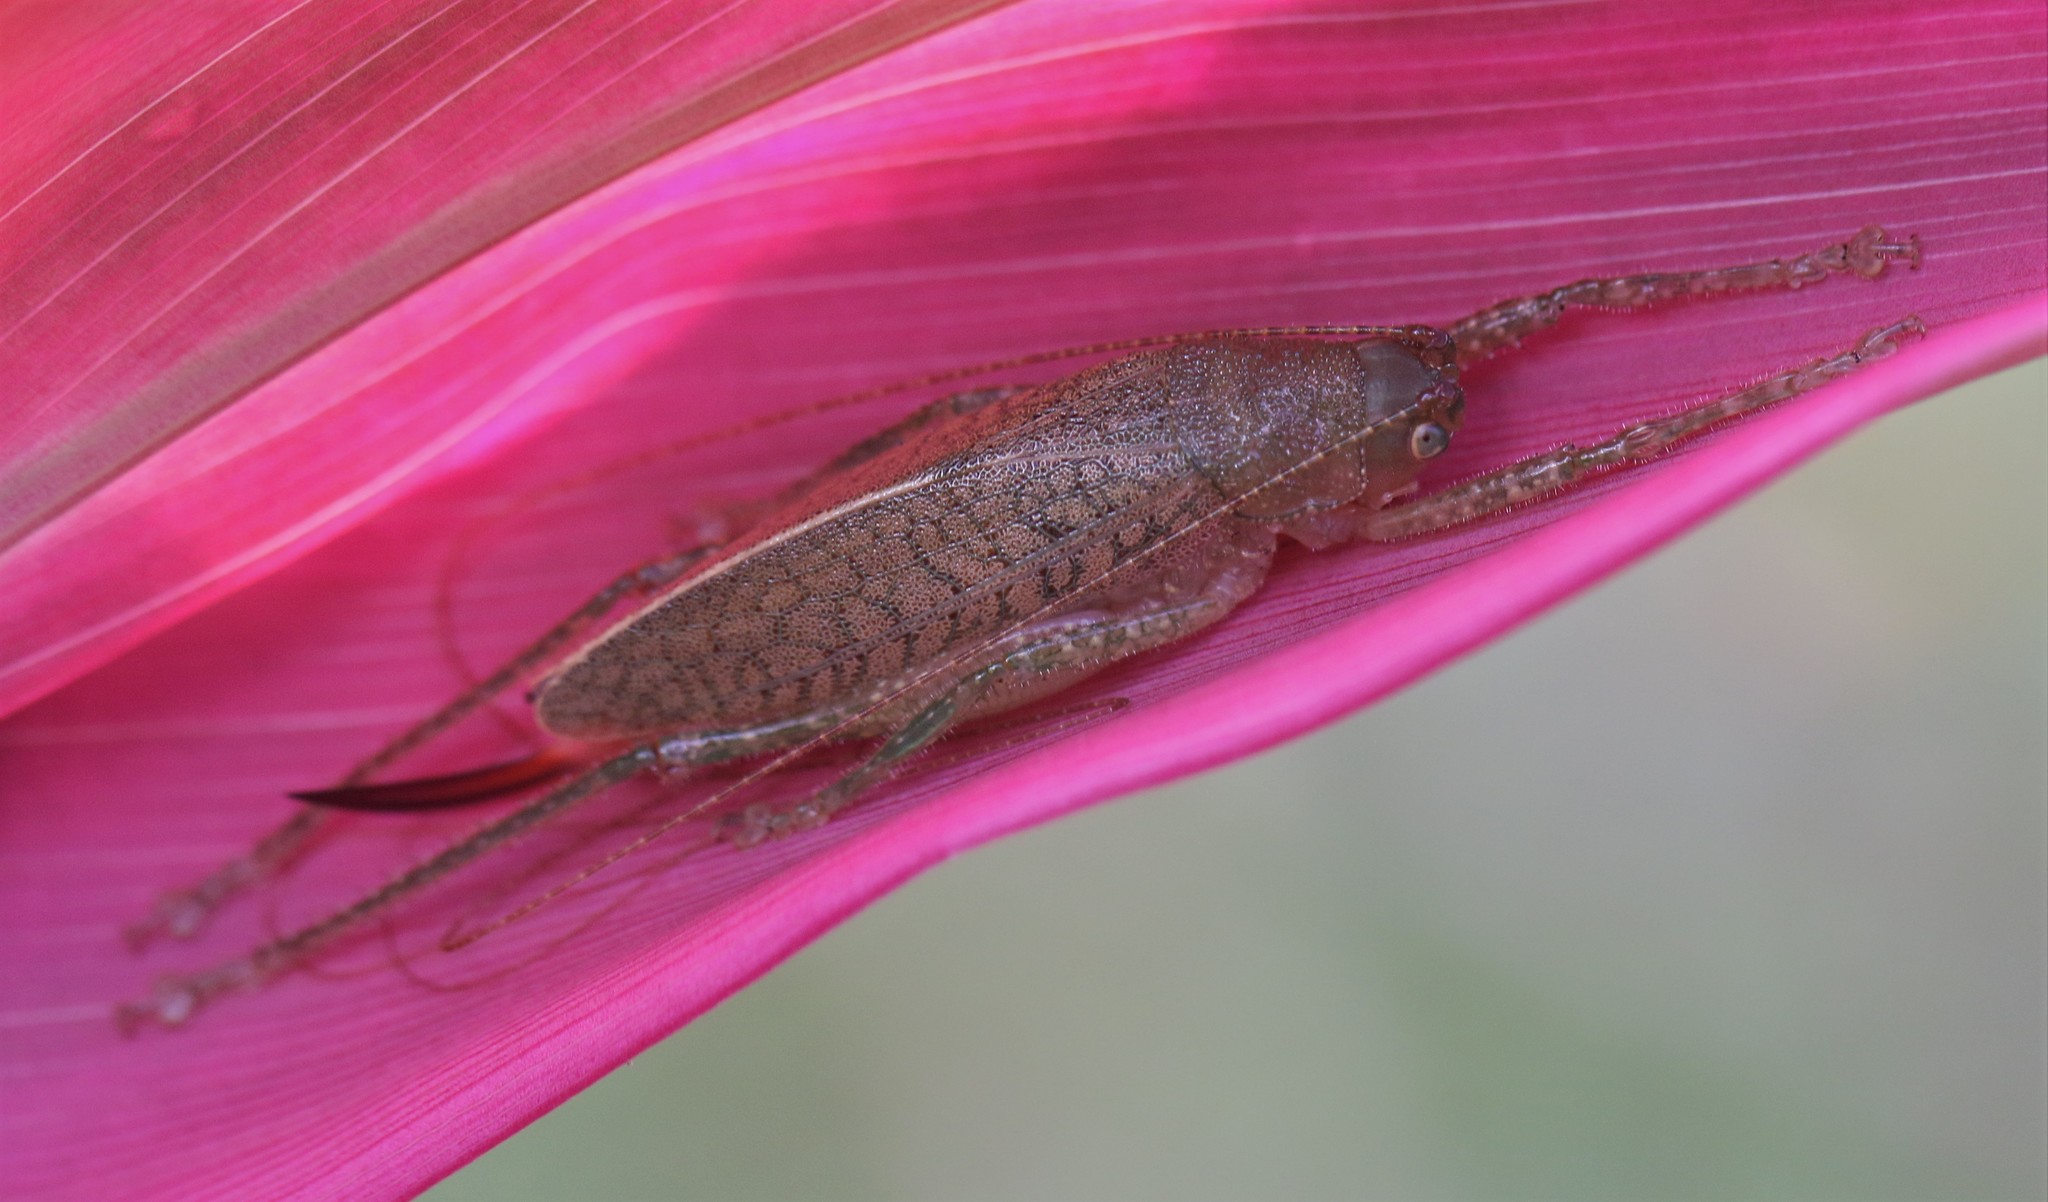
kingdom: Animalia
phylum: Arthropoda
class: Insecta
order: Orthoptera
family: Tettigoniidae
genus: Thamnobates
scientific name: Thamnobates subfalcata
